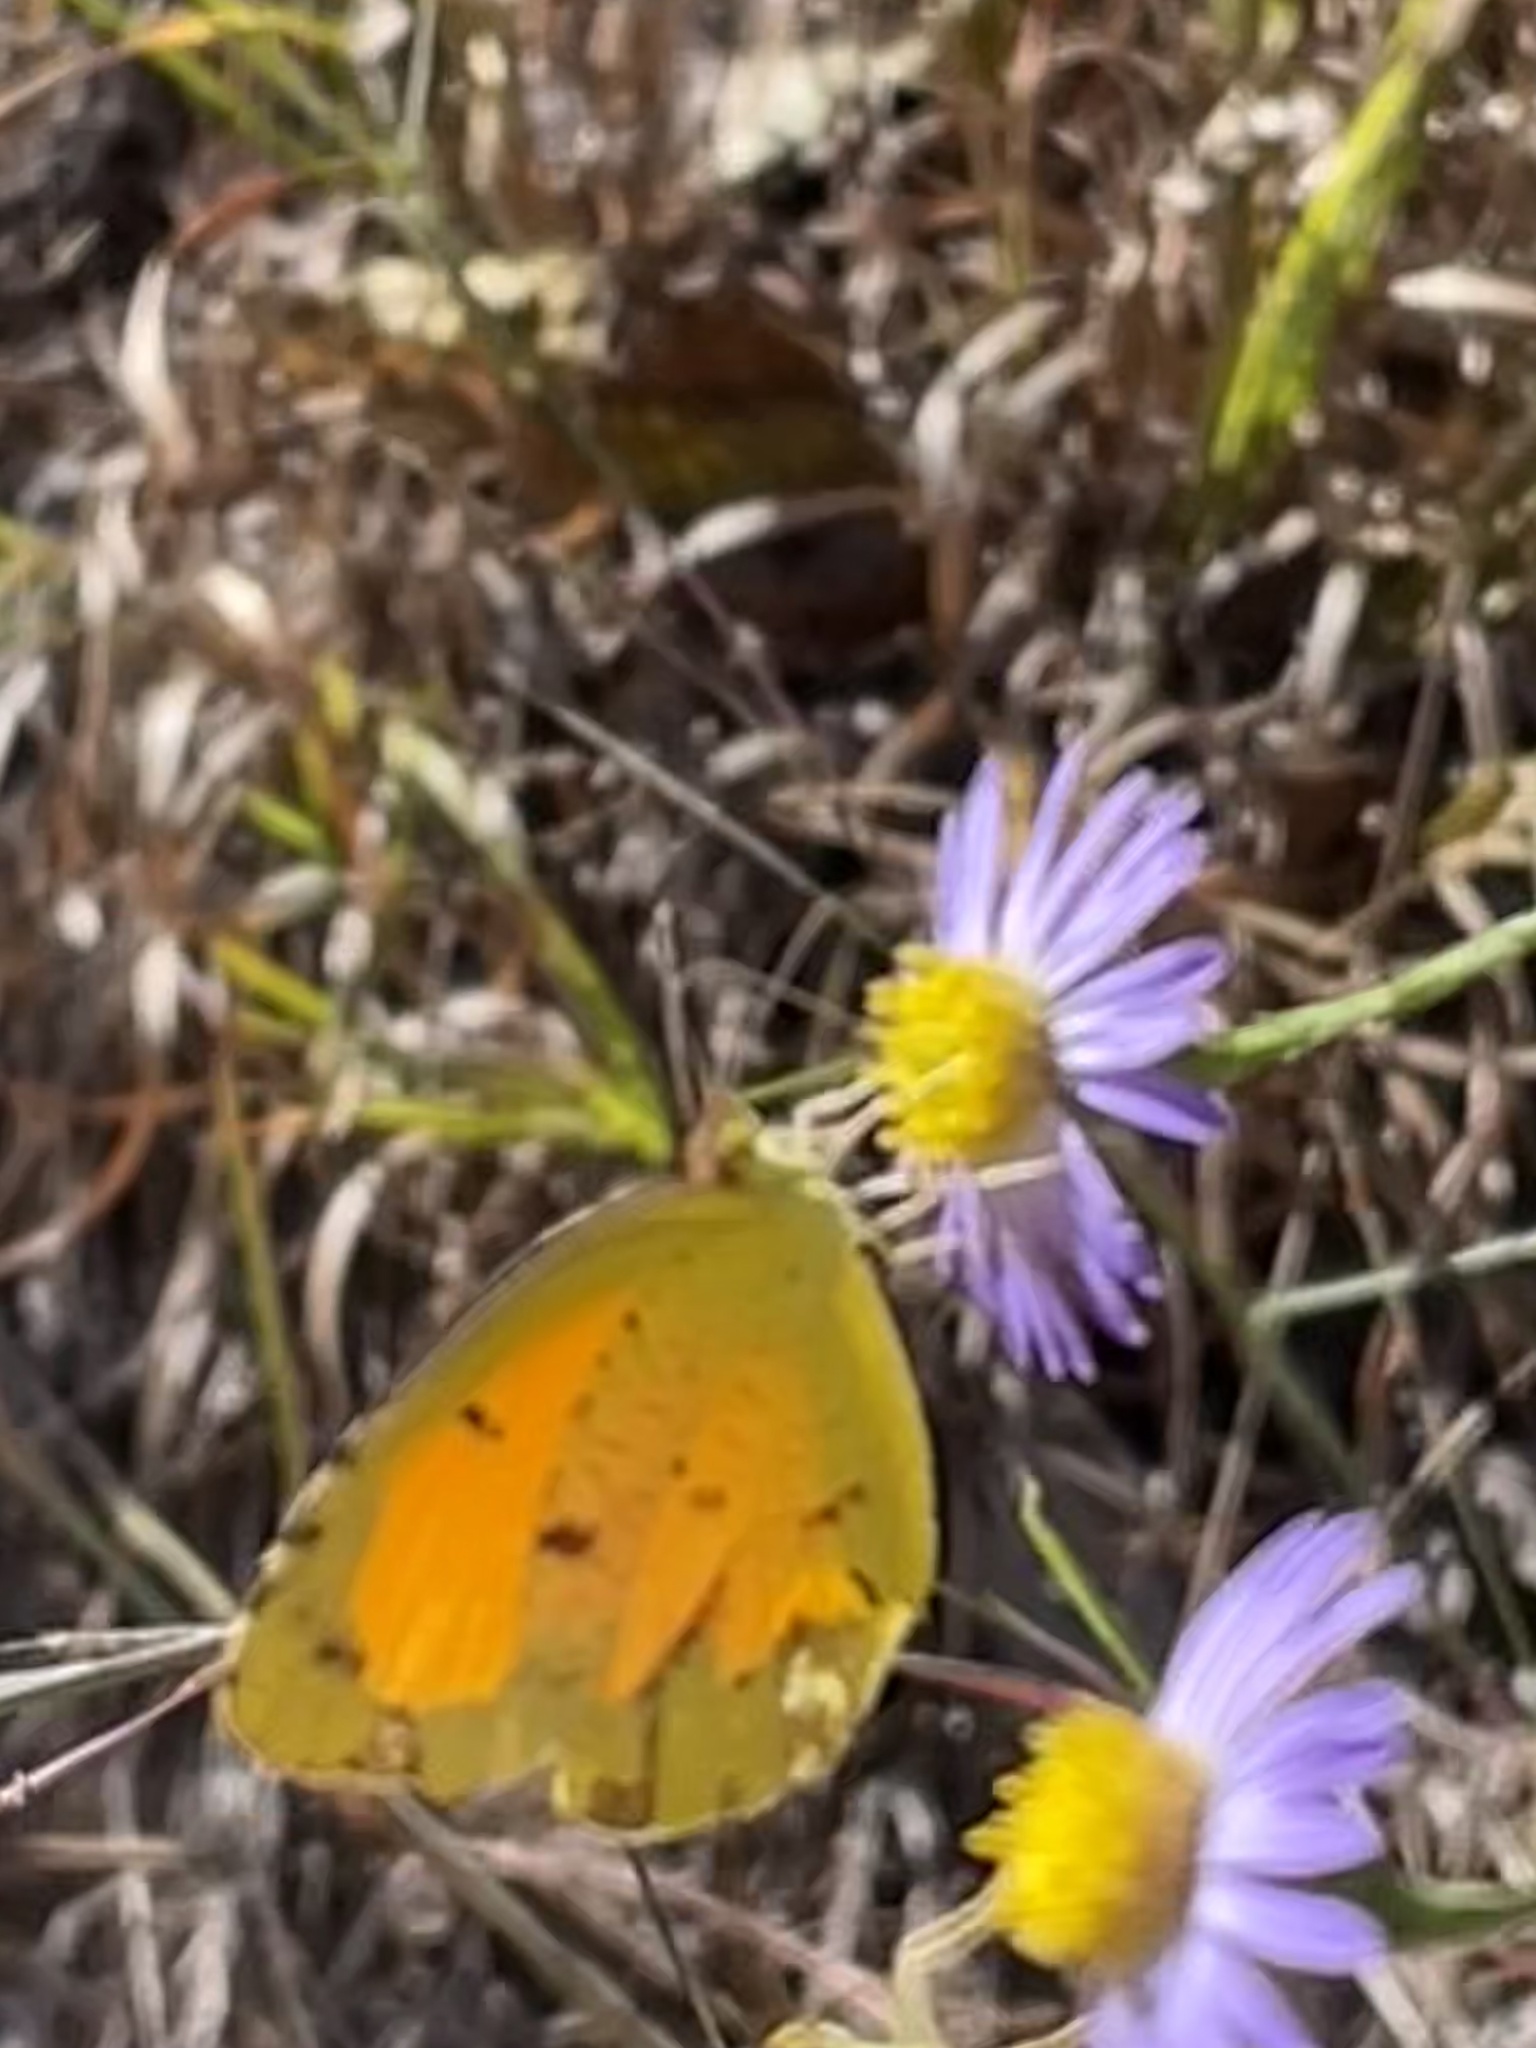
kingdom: Animalia
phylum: Arthropoda
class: Insecta
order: Lepidoptera
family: Pieridae
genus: Abaeis
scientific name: Abaeis nicippe
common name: Sleepy orange
